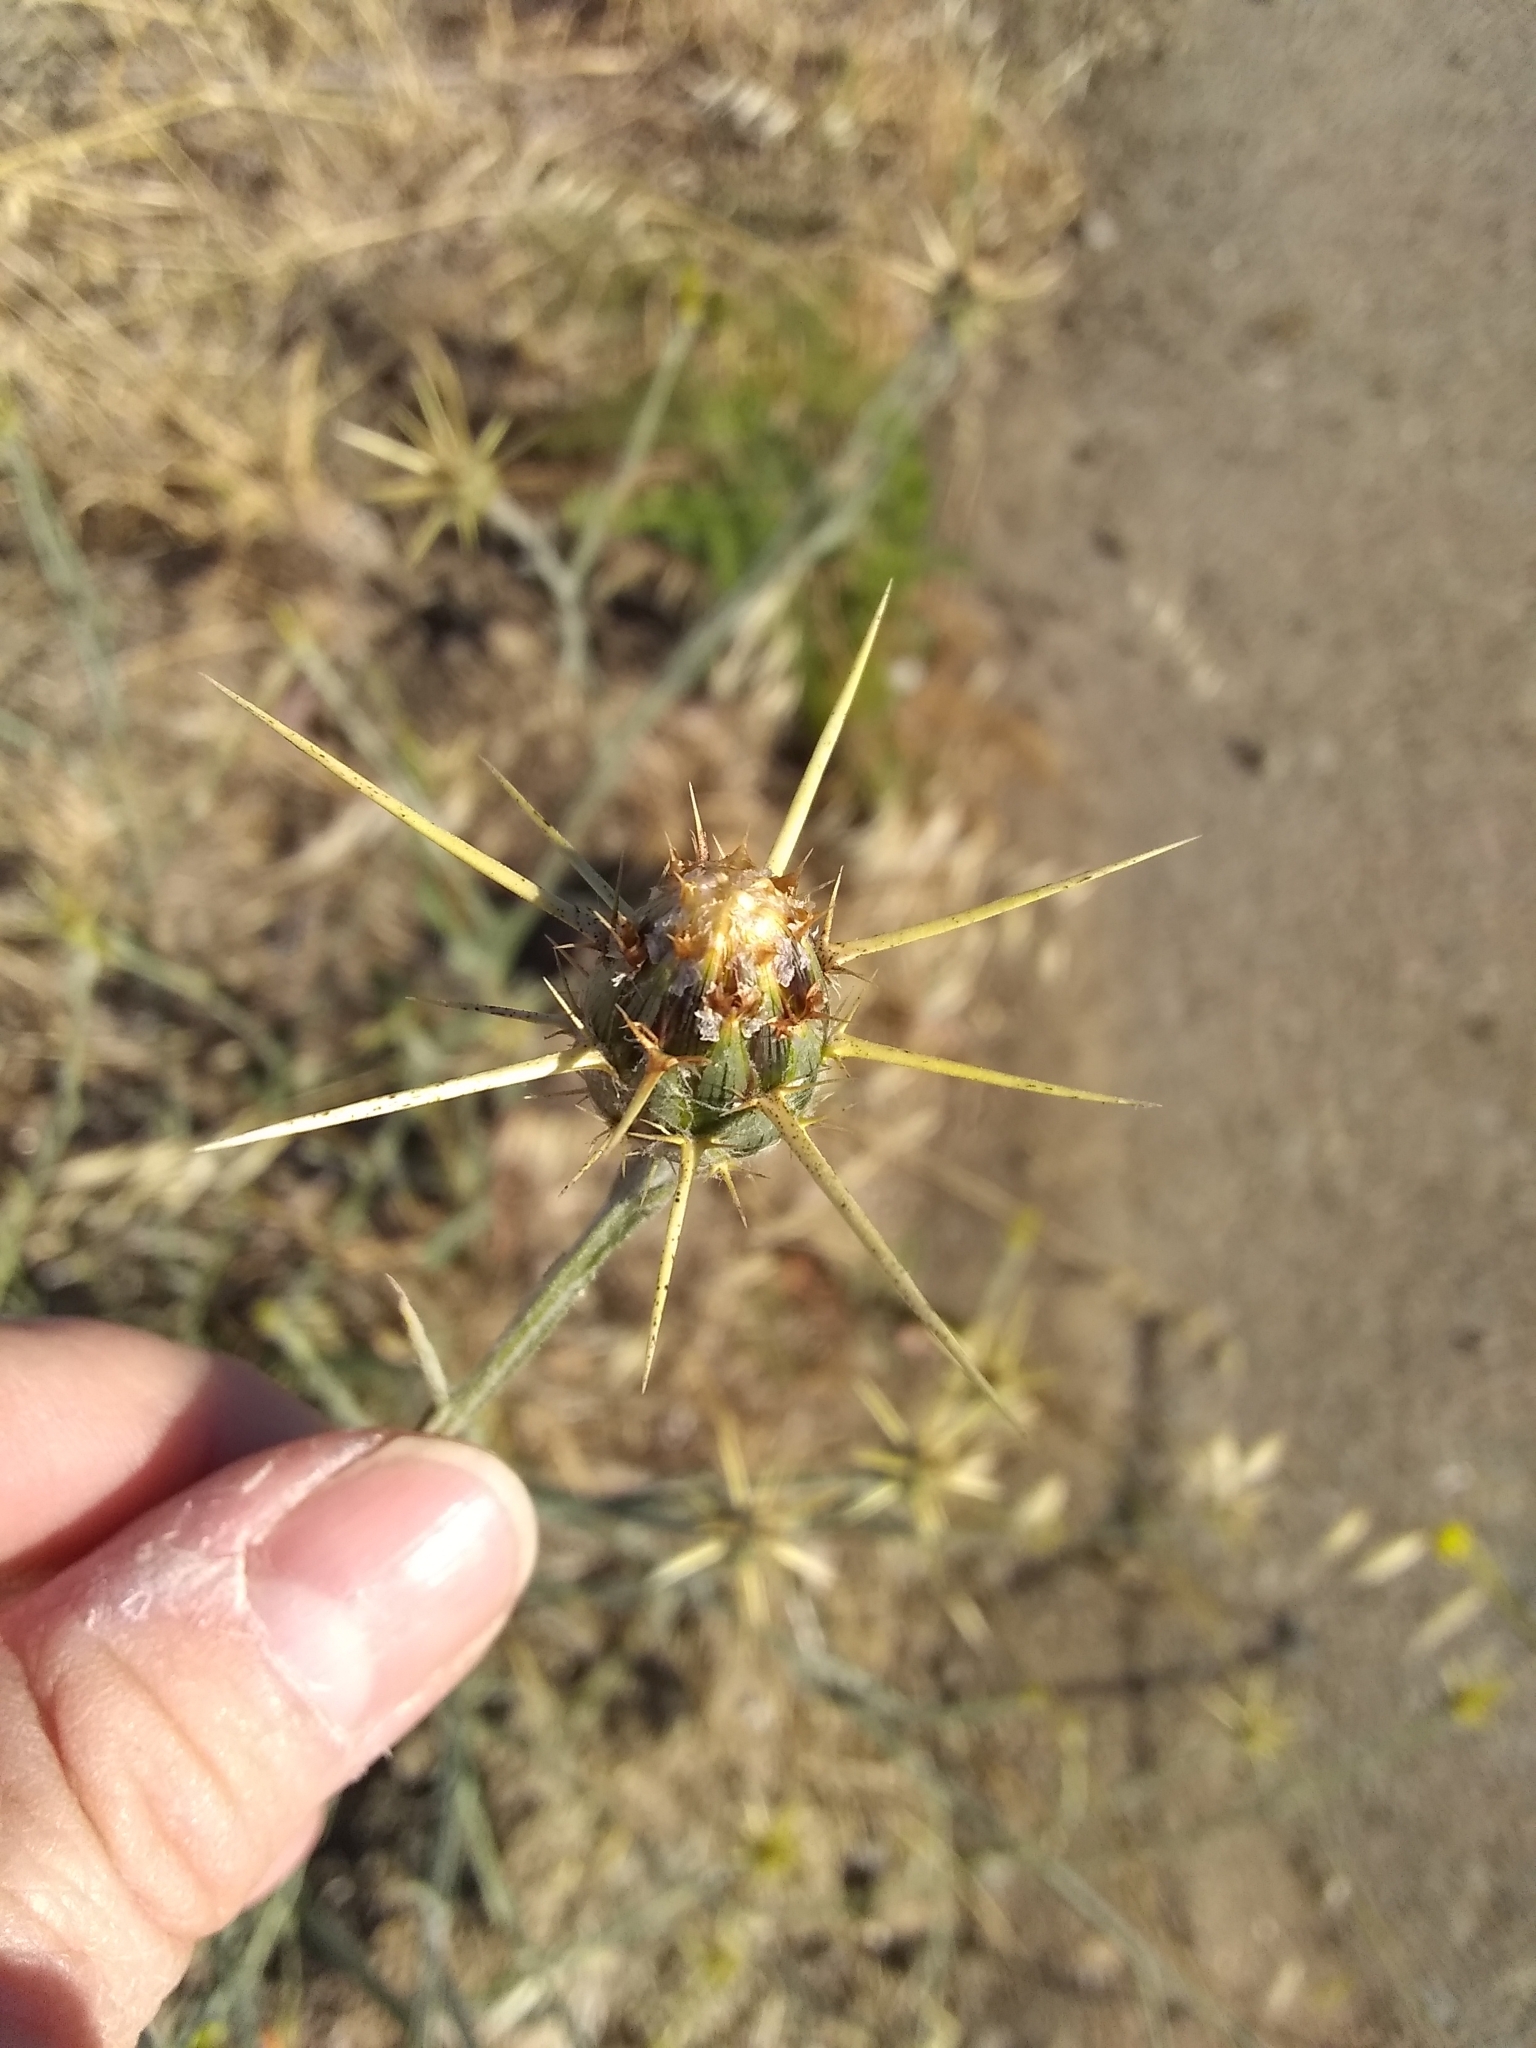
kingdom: Plantae
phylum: Tracheophyta
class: Magnoliopsida
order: Asterales
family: Asteraceae
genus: Centaurea
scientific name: Centaurea solstitialis
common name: Yellow star-thistle
